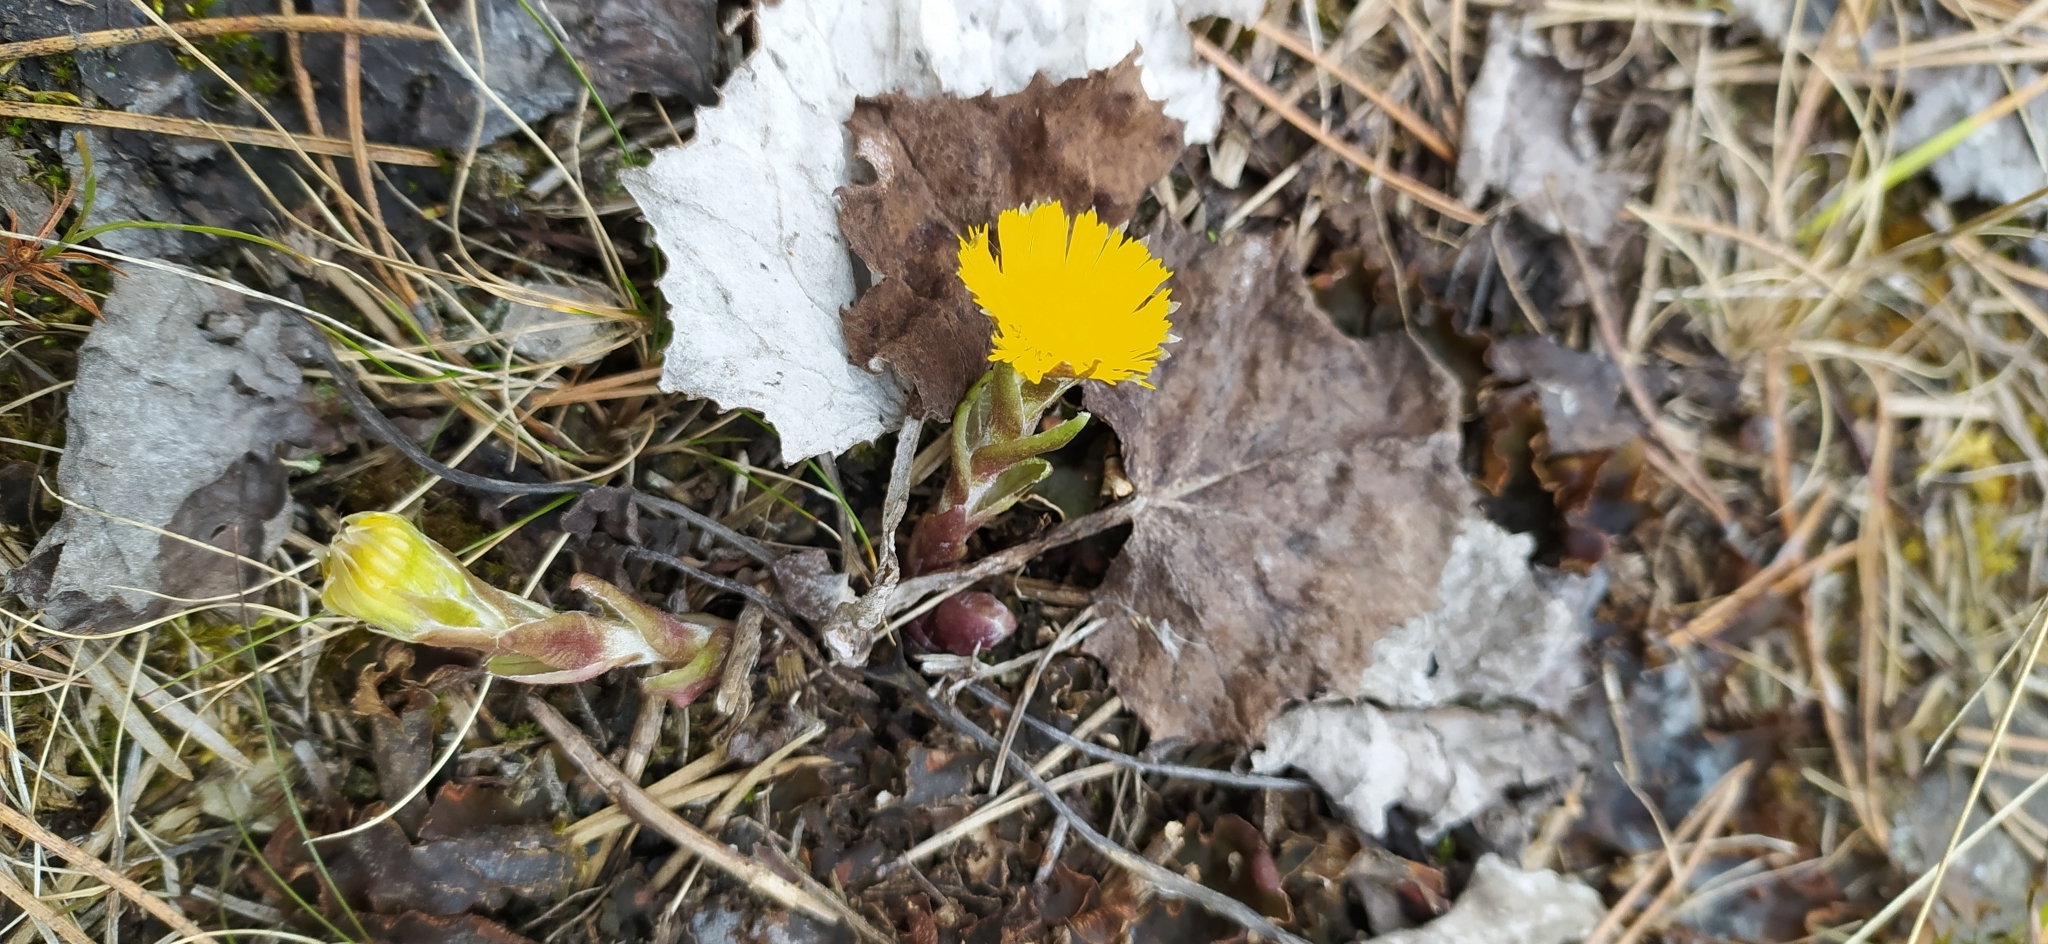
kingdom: Plantae
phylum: Tracheophyta
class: Magnoliopsida
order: Asterales
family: Asteraceae
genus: Tussilago
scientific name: Tussilago farfara
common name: Coltsfoot
